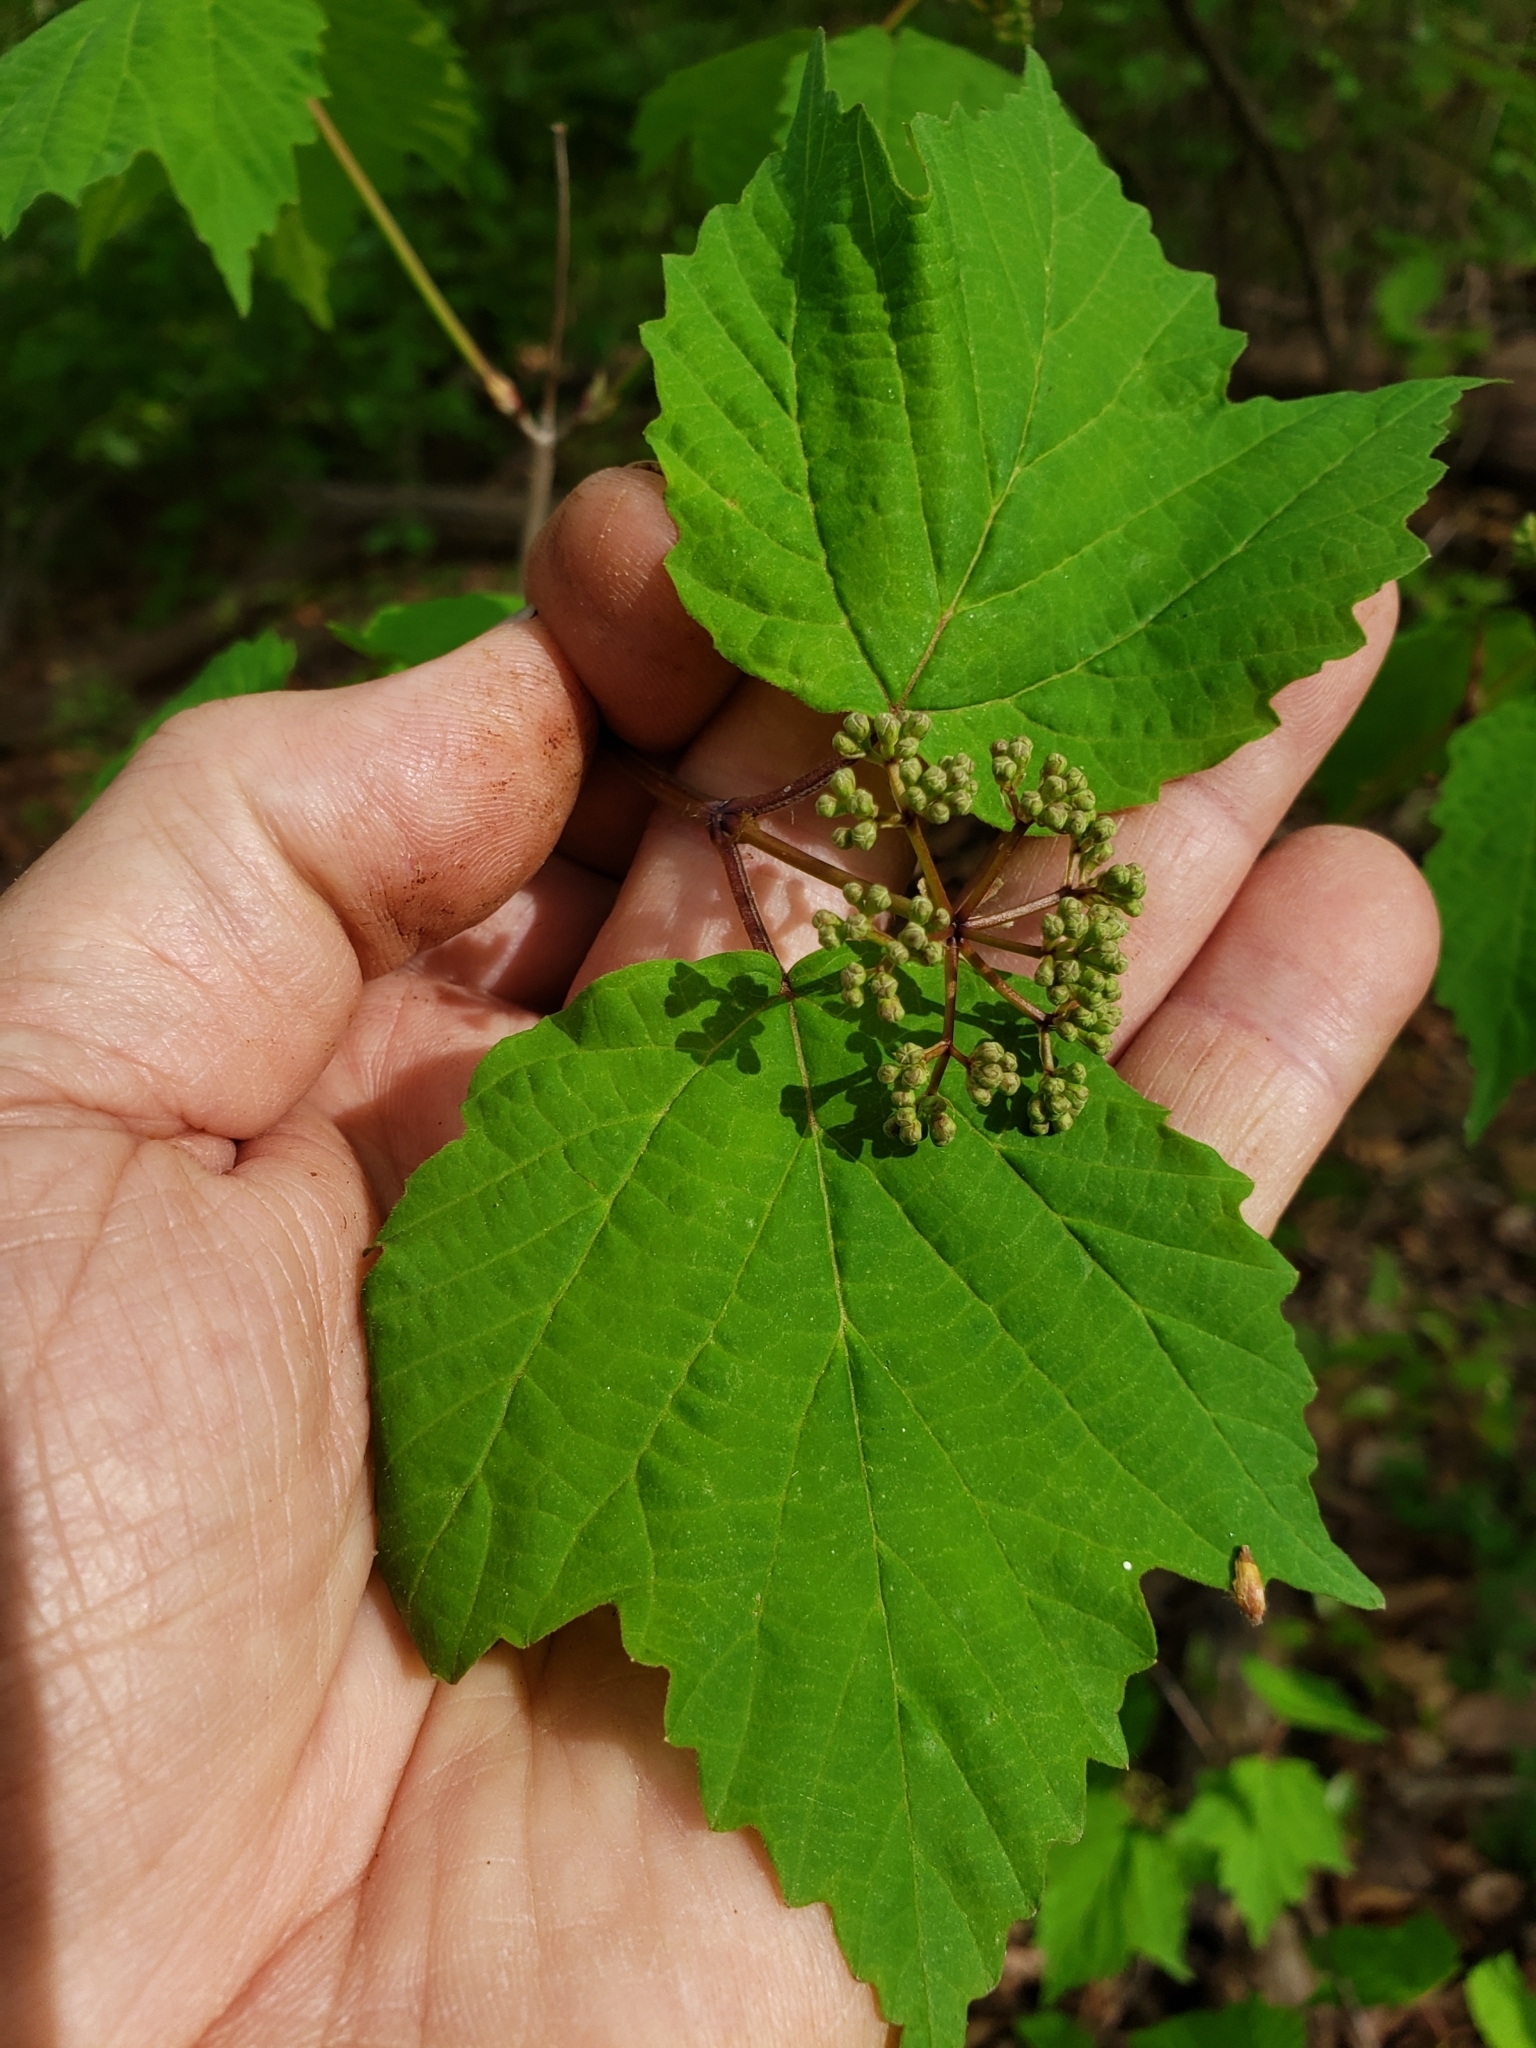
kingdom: Plantae
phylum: Tracheophyta
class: Magnoliopsida
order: Dipsacales
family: Viburnaceae
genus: Viburnum
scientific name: Viburnum acerifolium
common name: Dockmackie
